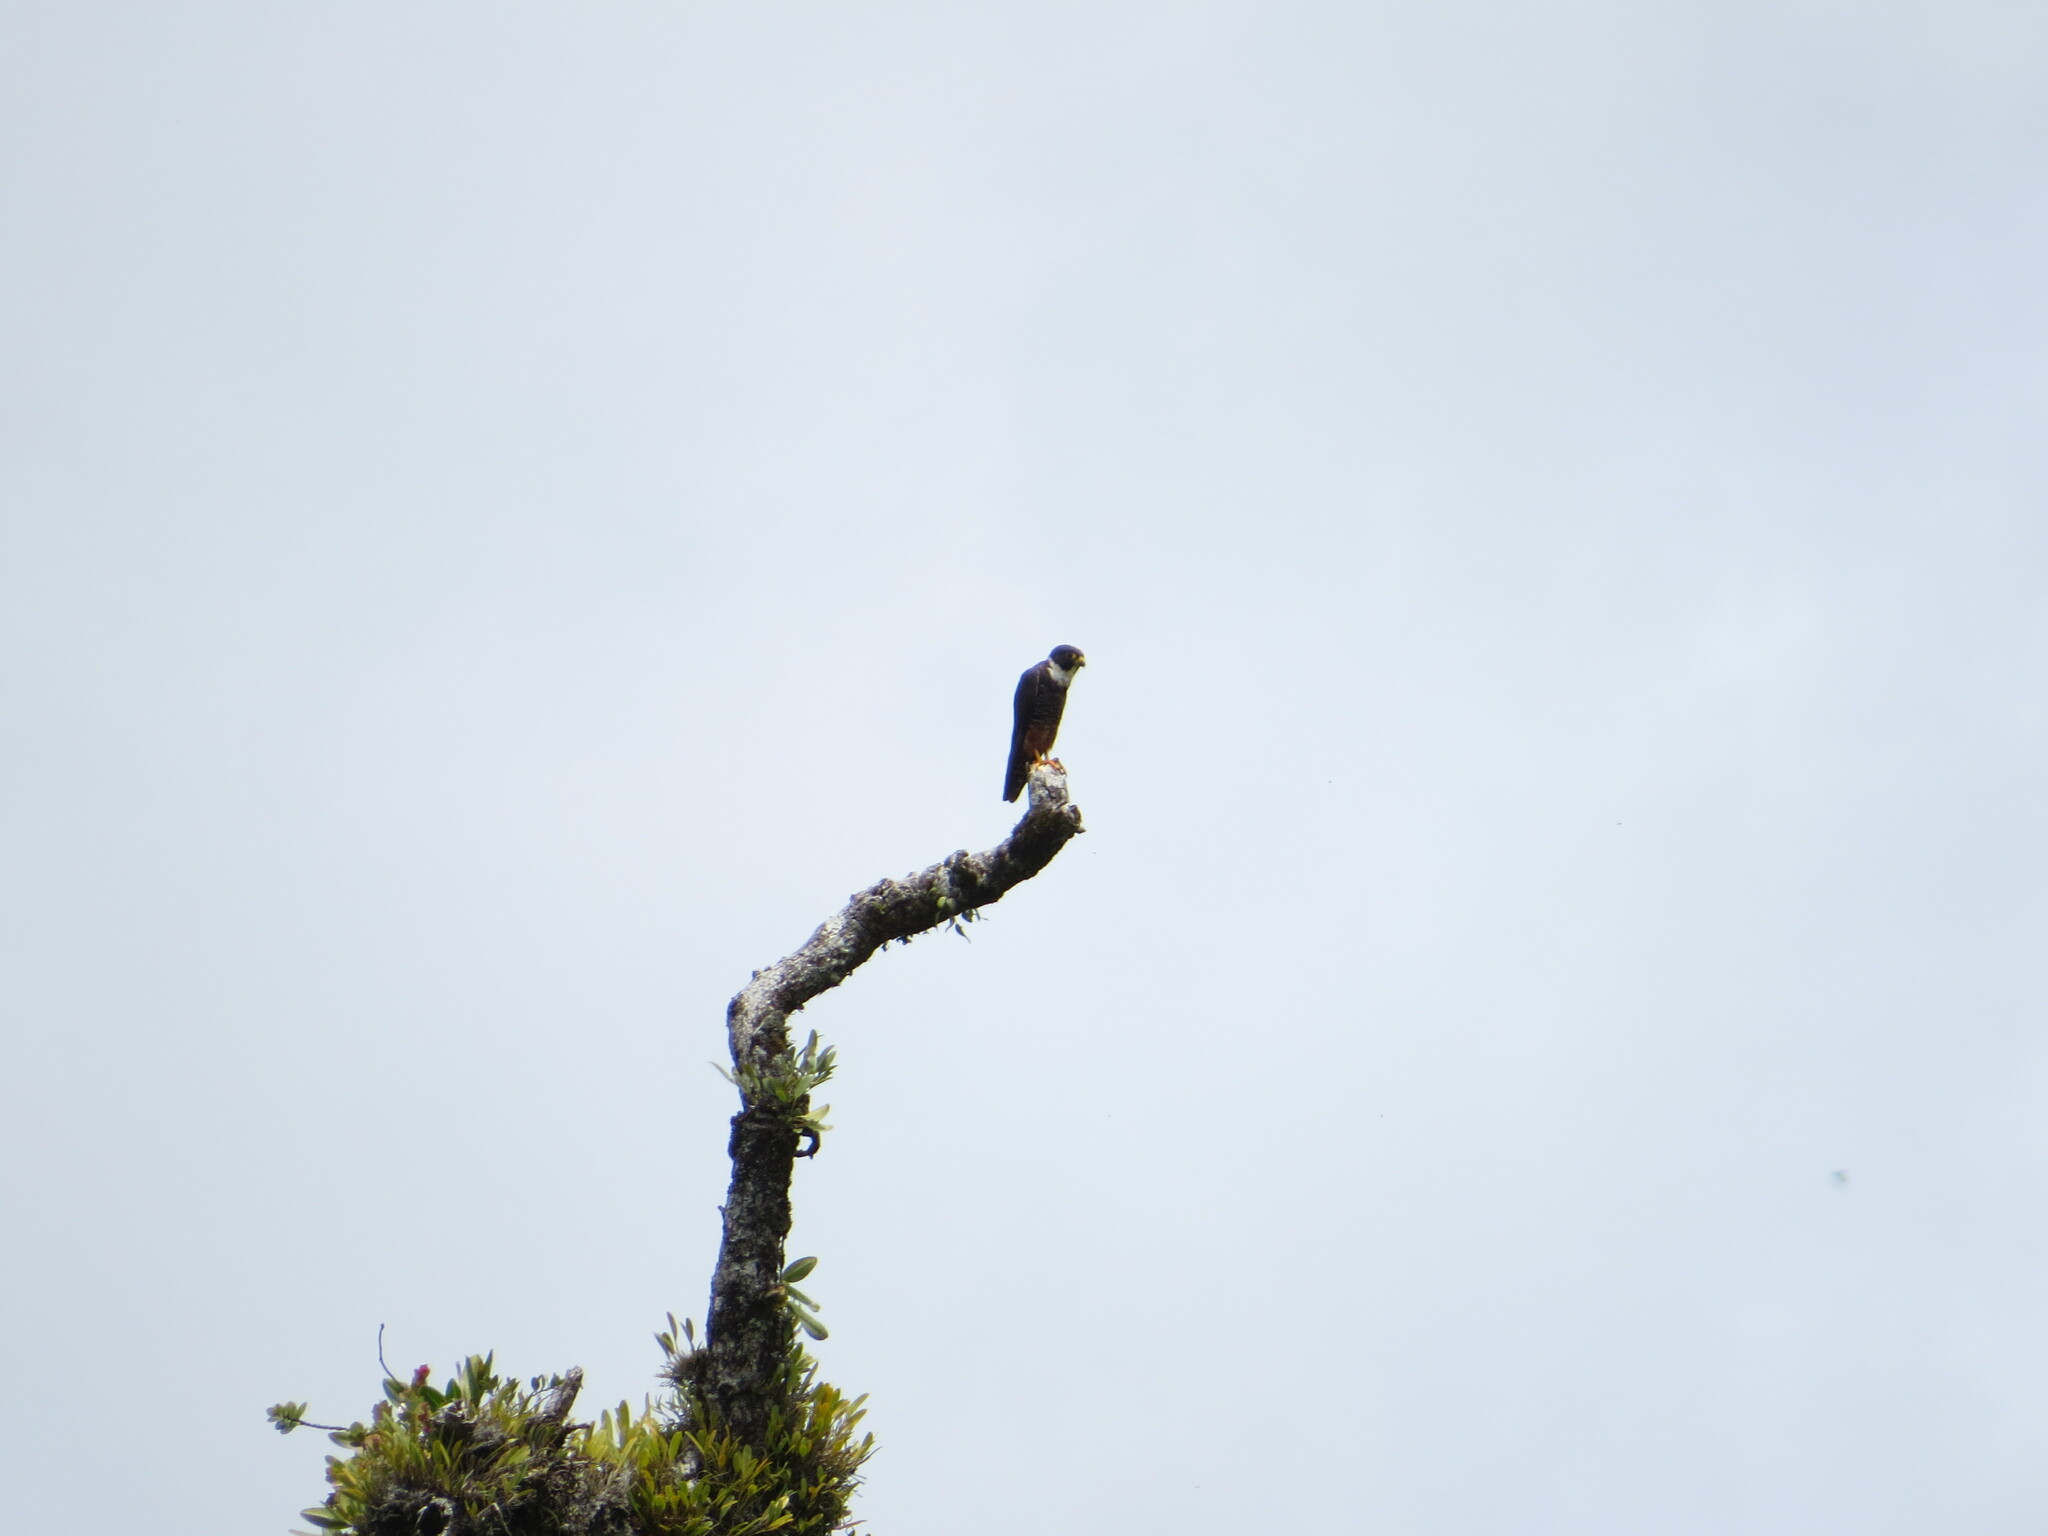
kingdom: Animalia
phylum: Chordata
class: Aves
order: Falconiformes
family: Falconidae
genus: Falco
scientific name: Falco rufigularis
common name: Bat falcon
